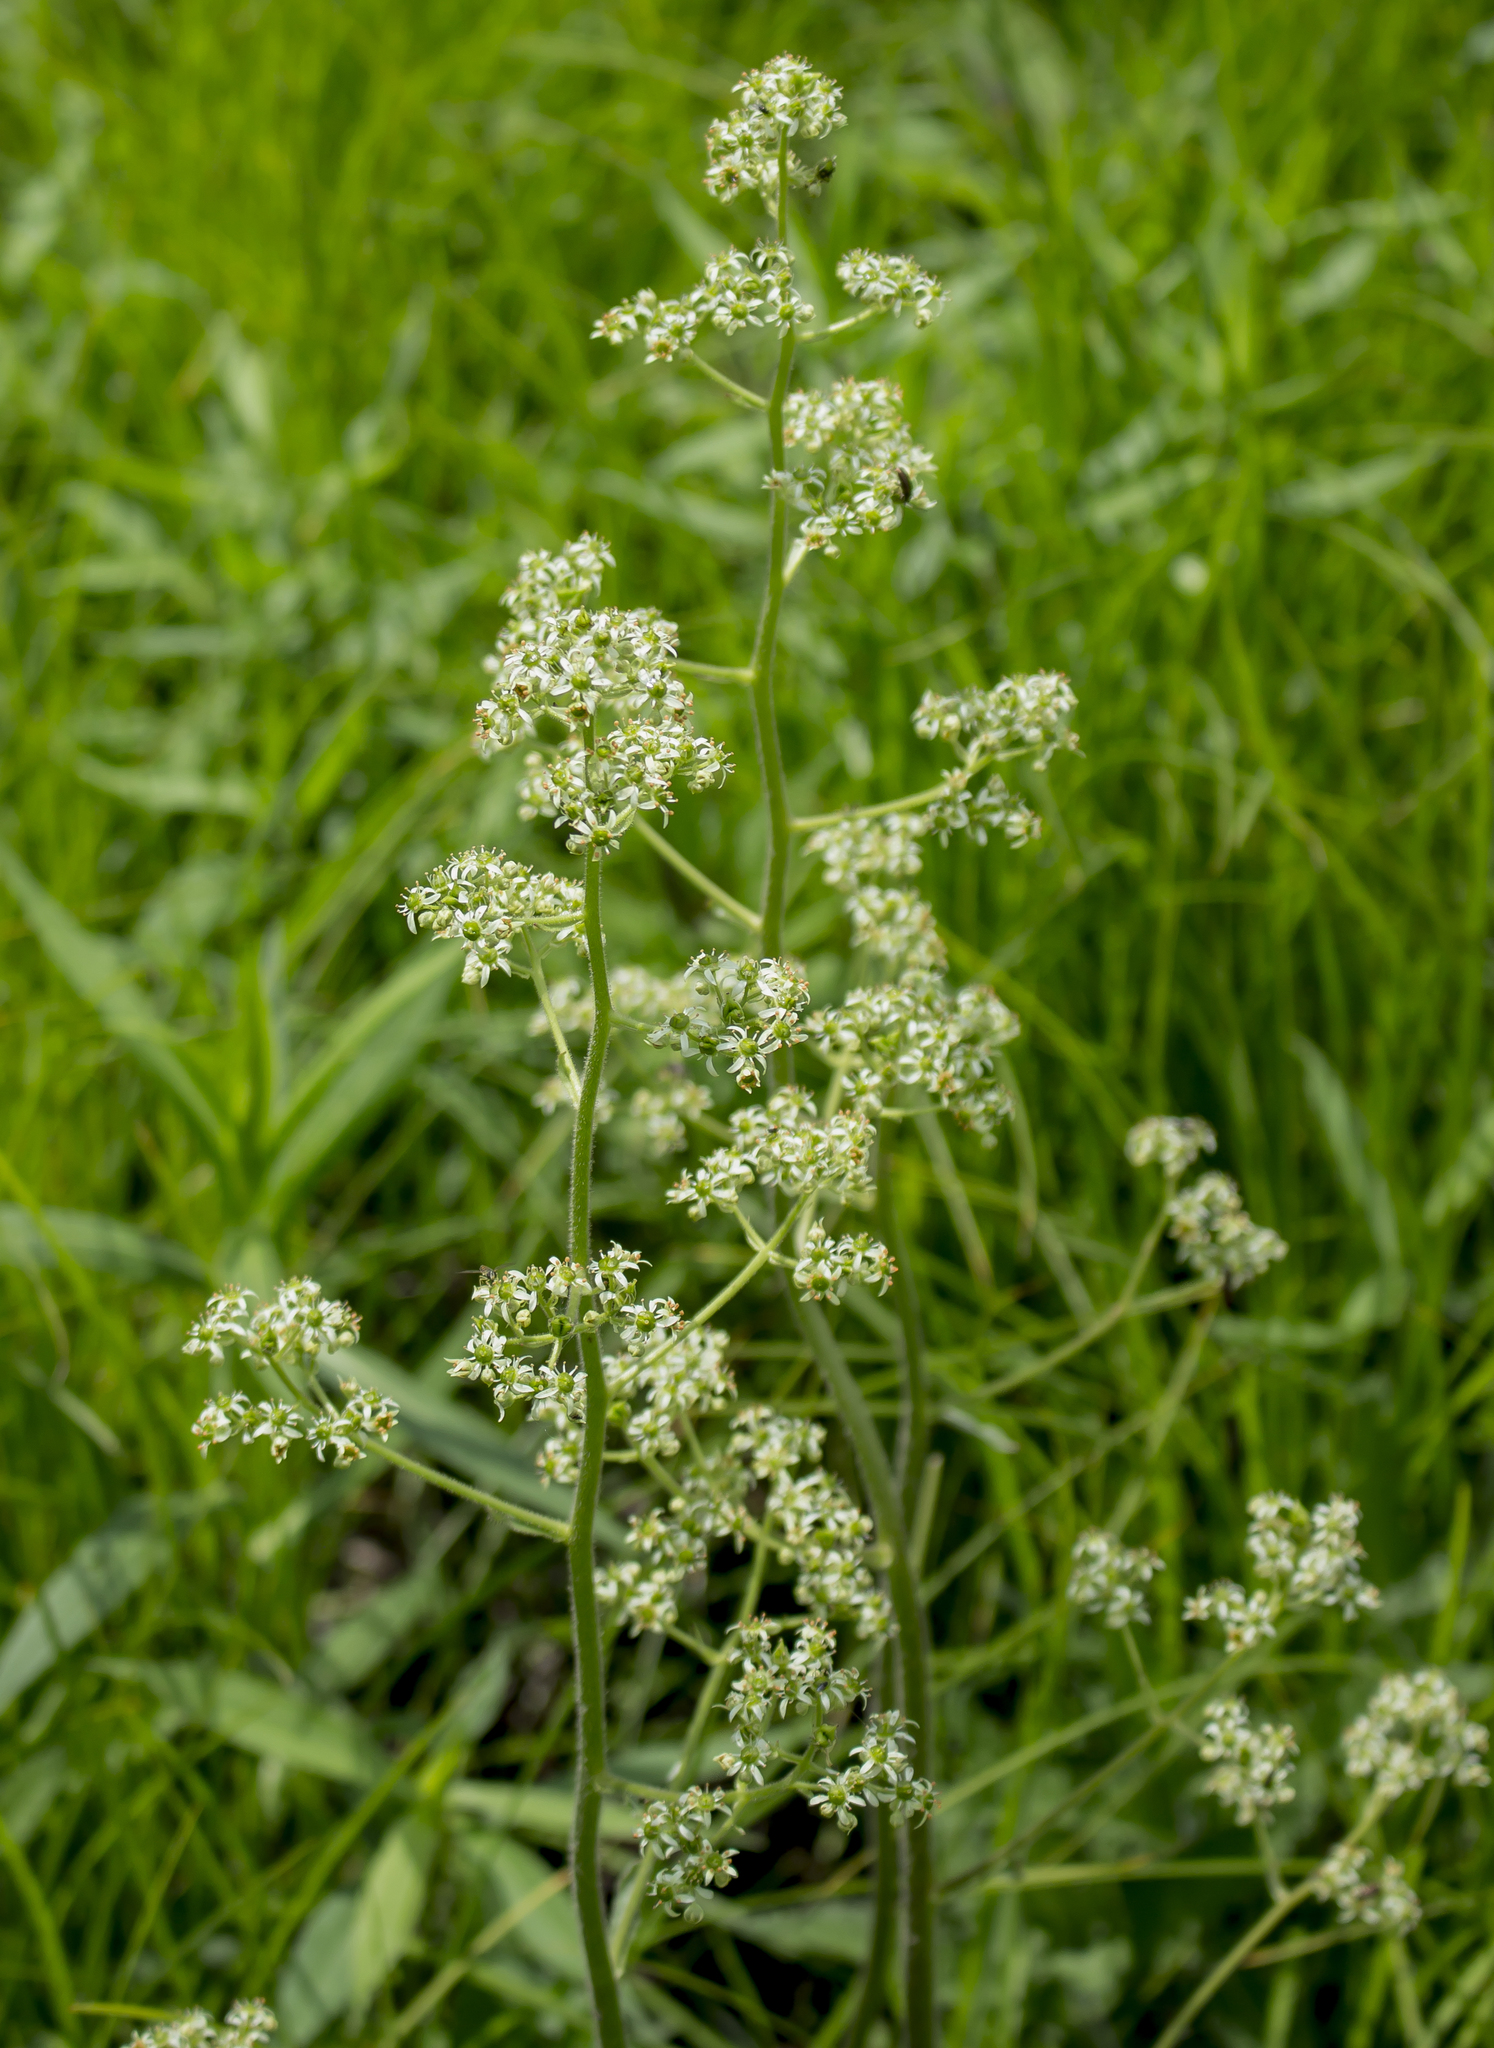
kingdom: Plantae
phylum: Tracheophyta
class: Magnoliopsida
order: Saxifragales
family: Saxifragaceae
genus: Micranthes
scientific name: Micranthes pensylvanica
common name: Marsh saxifrage
